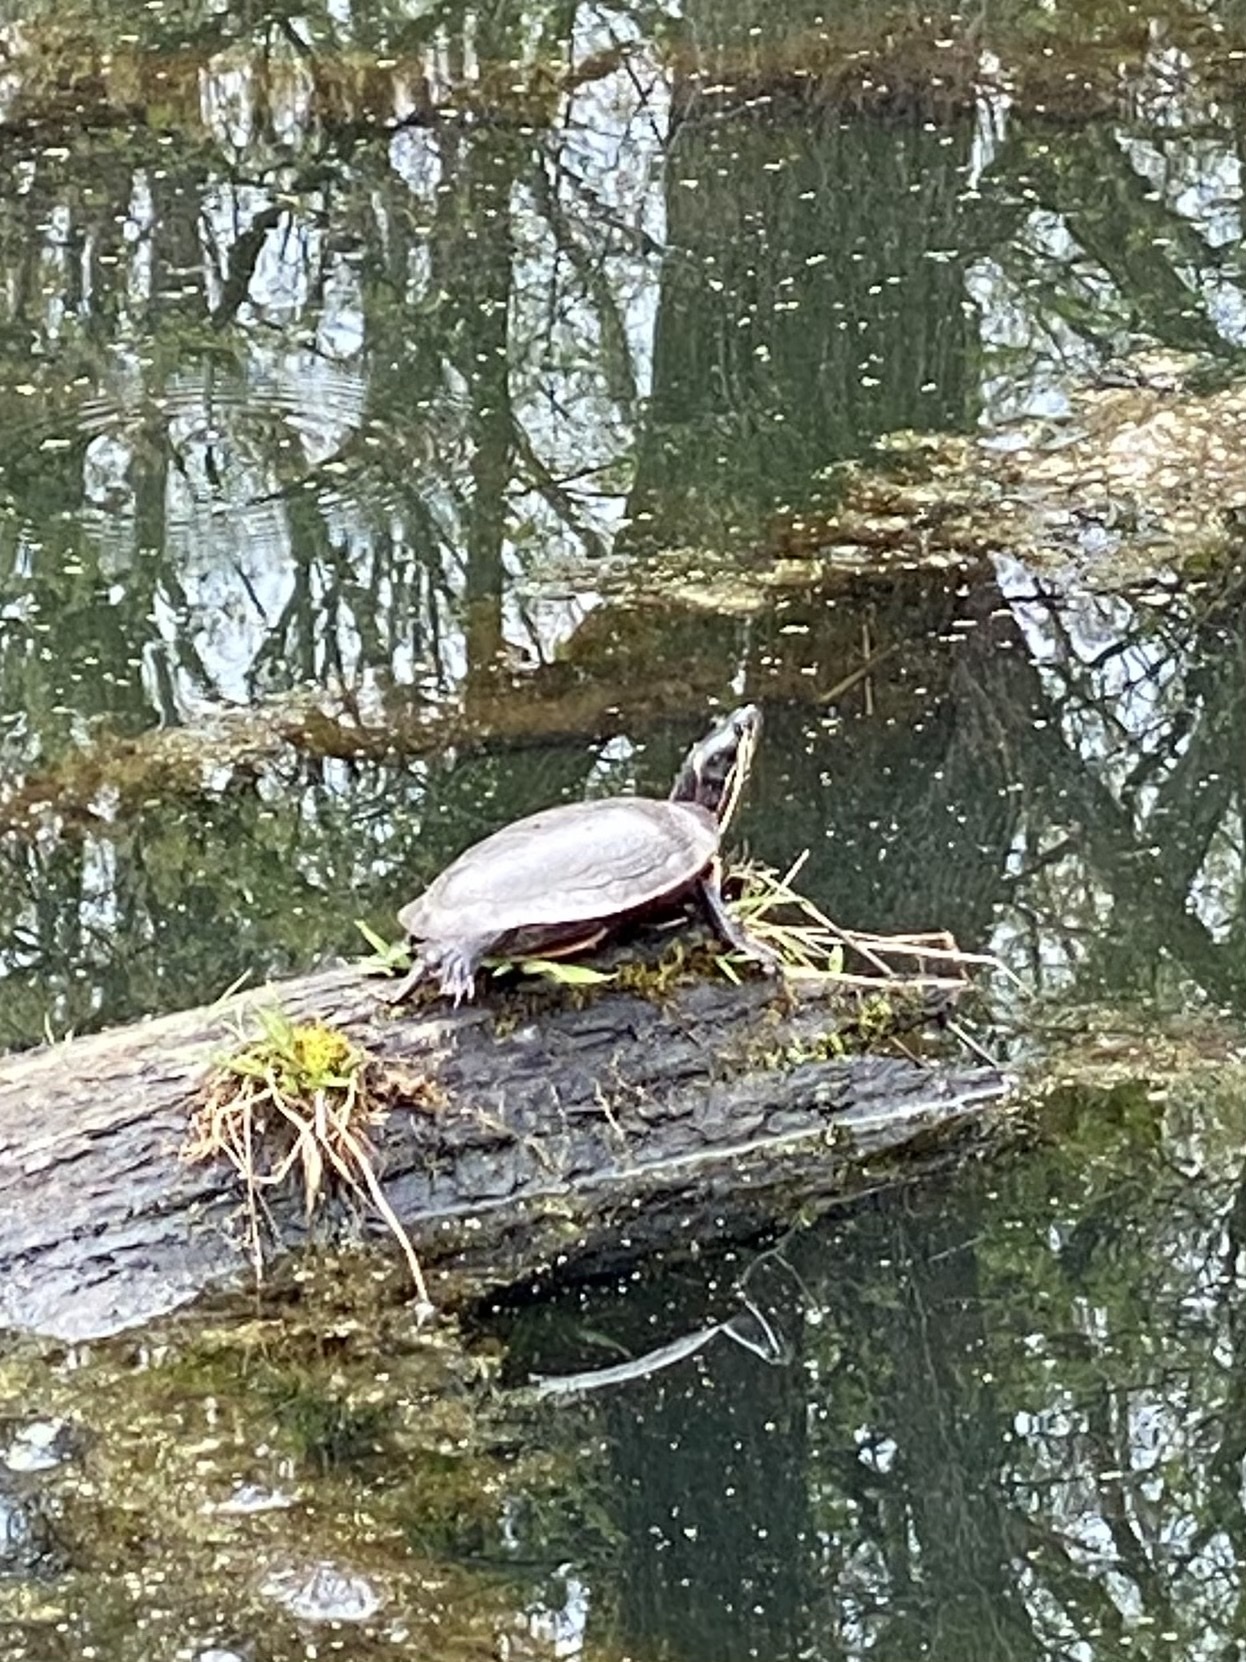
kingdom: Animalia
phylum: Chordata
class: Testudines
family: Emydidae
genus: Chrysemys
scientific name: Chrysemys picta
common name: Painted turtle
